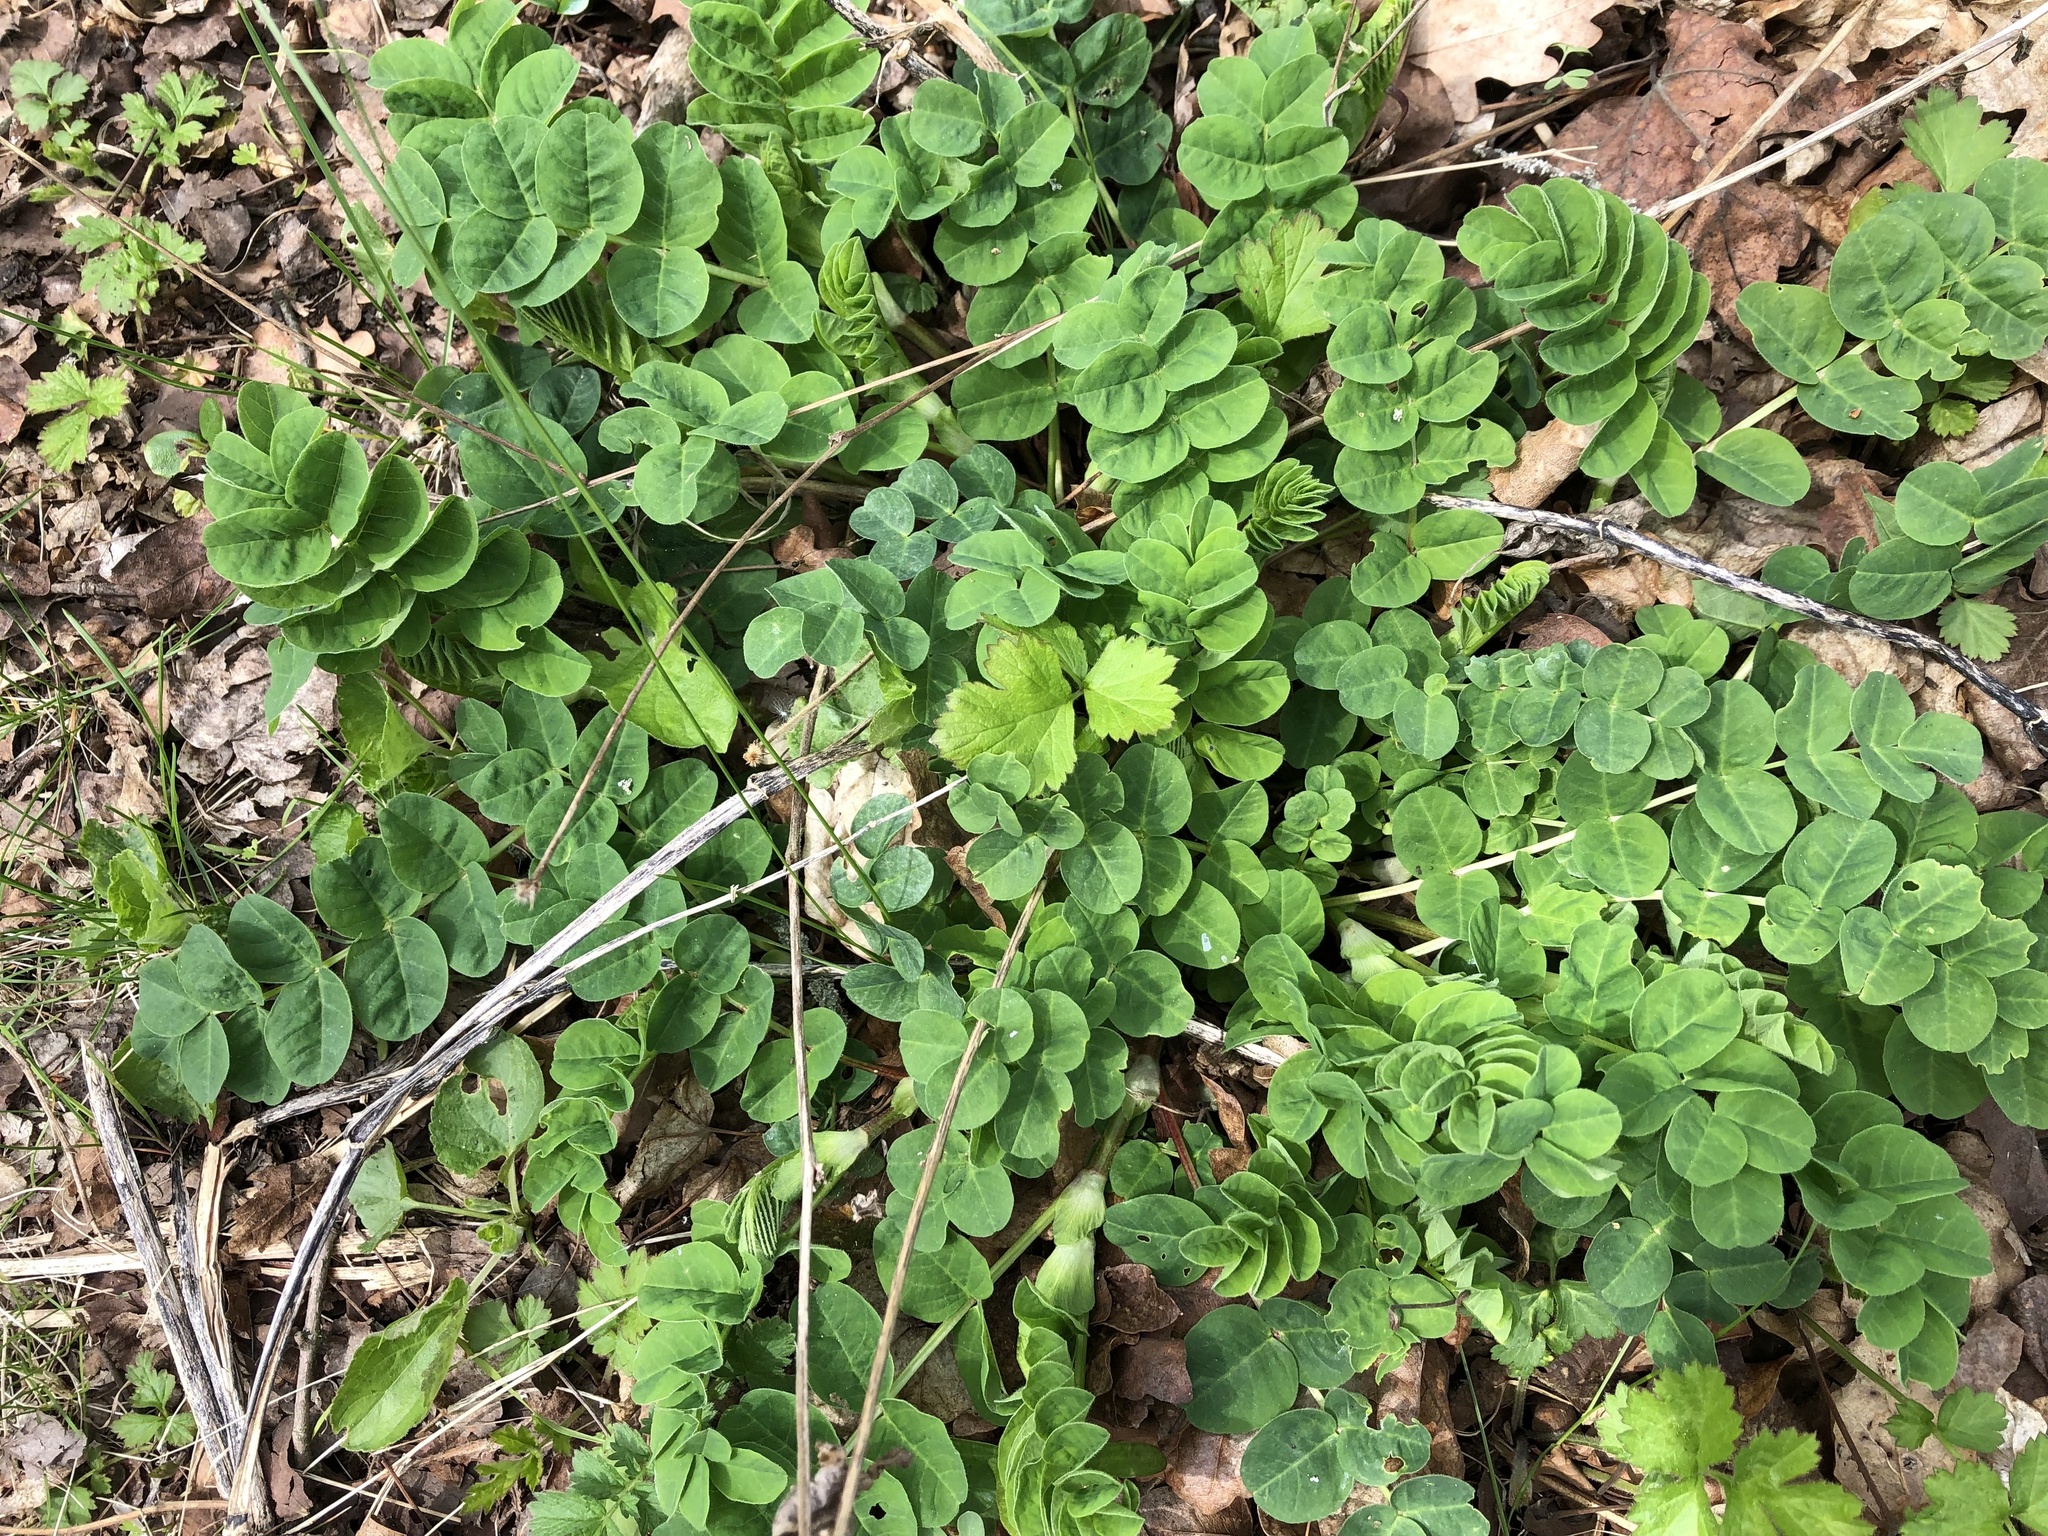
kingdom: Plantae
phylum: Tracheophyta
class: Magnoliopsida
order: Fabales
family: Fabaceae
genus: Astragalus
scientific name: Astragalus glycyphyllos
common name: Wild liquorice
